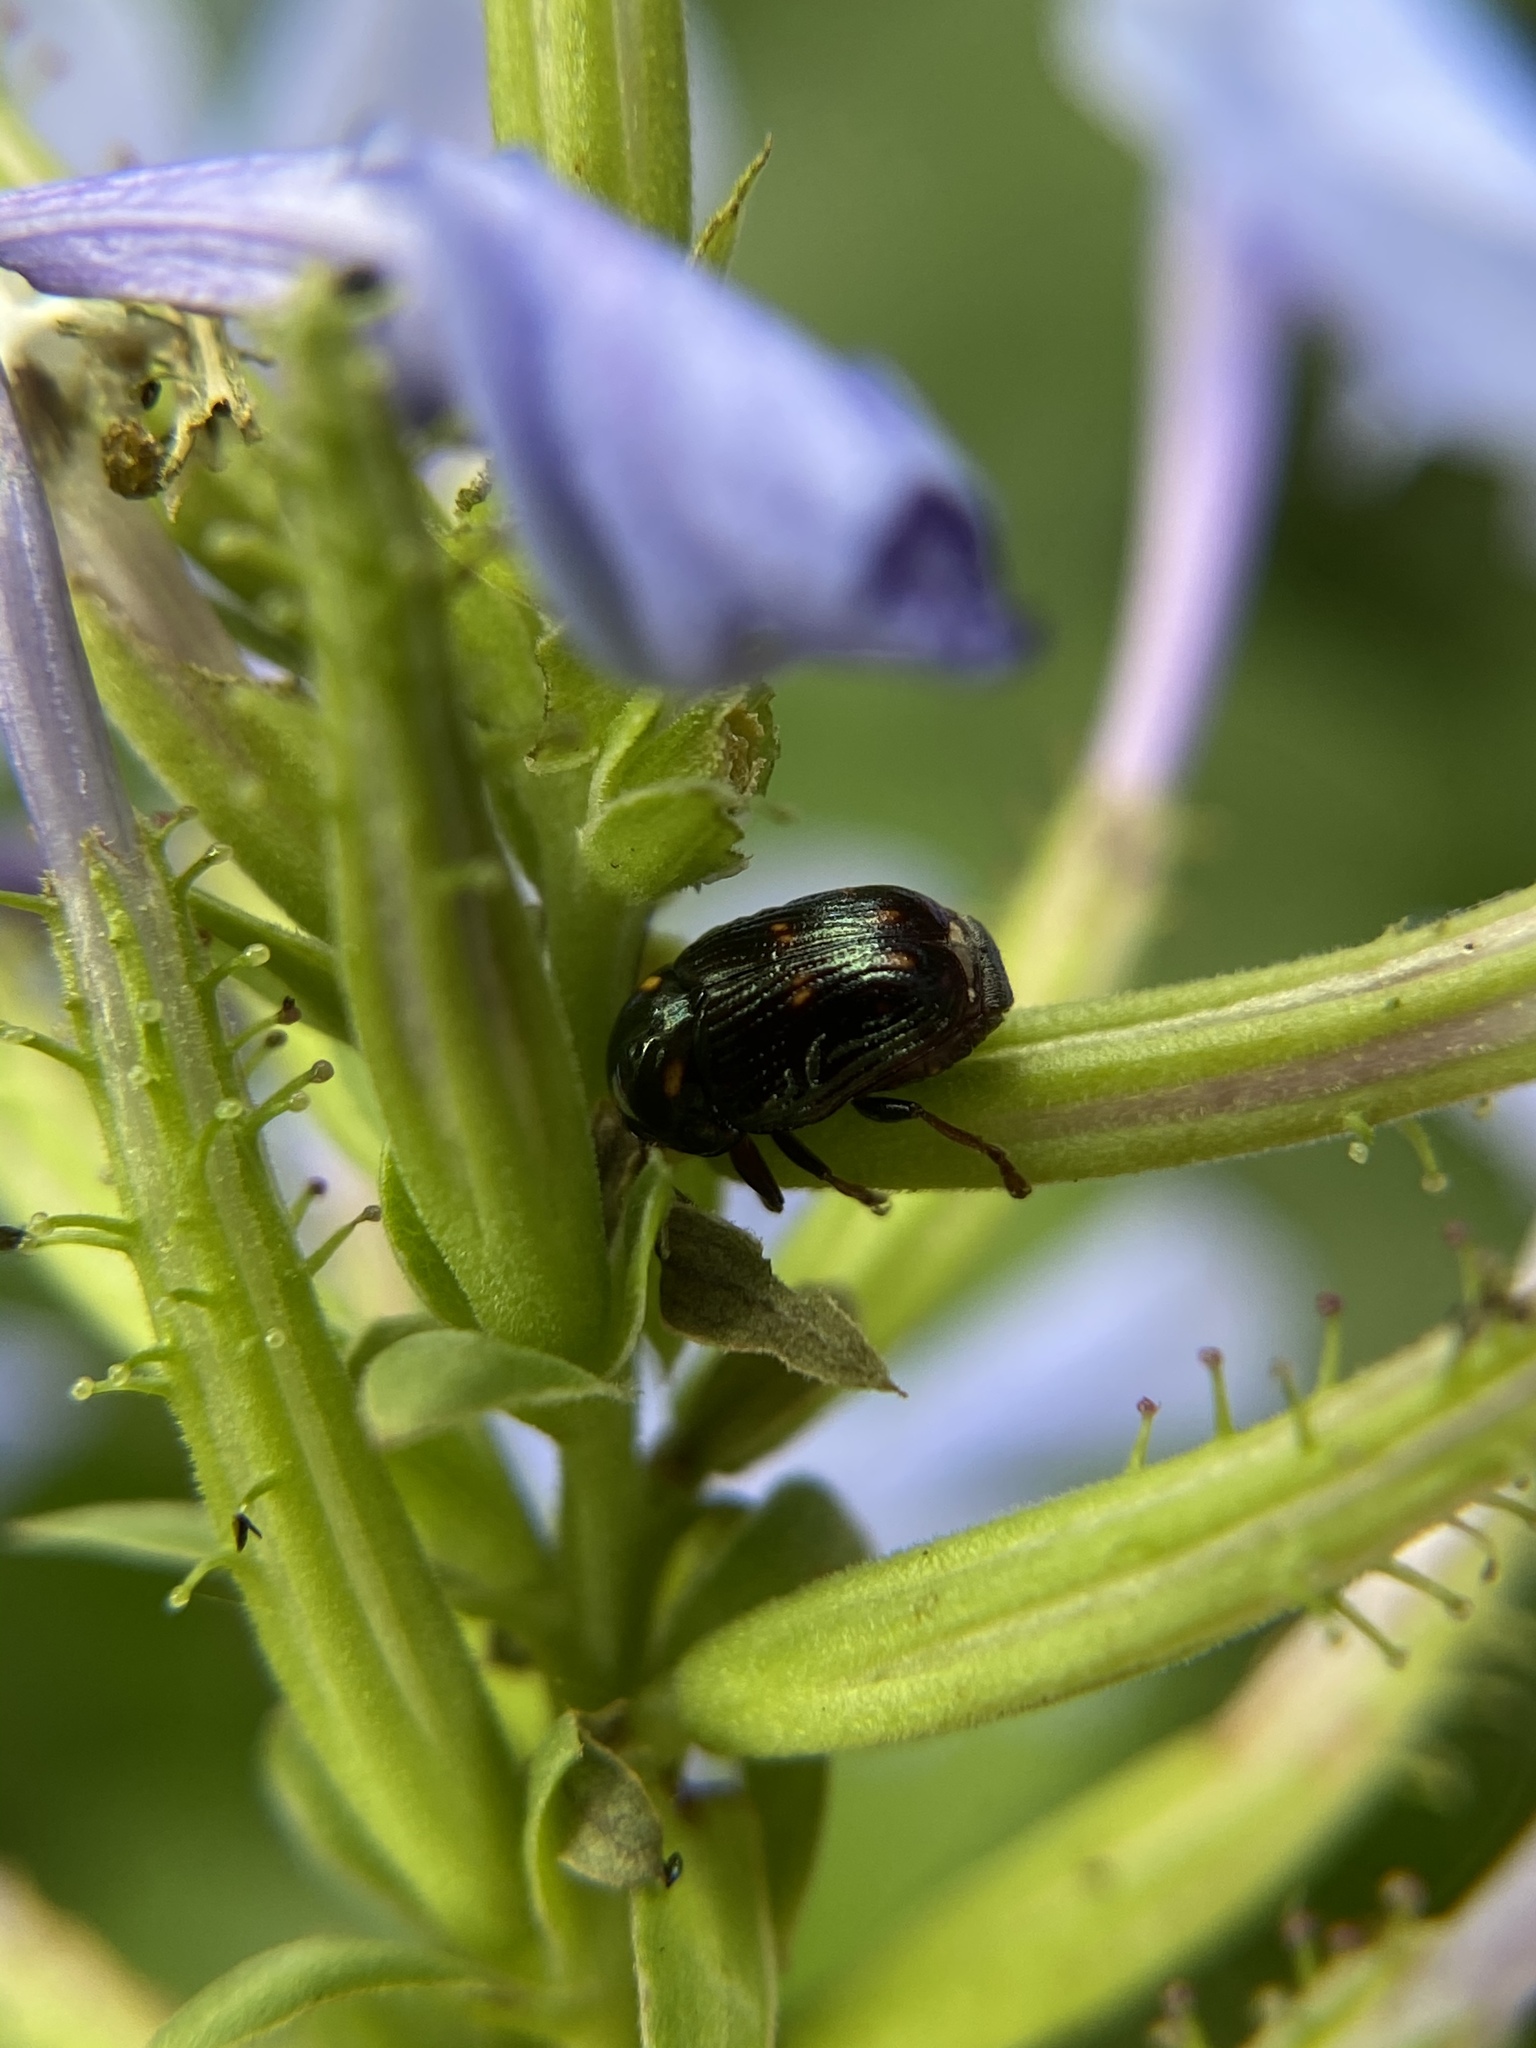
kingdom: Animalia
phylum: Arthropoda
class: Insecta
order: Coleoptera
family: Chrysomelidae
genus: Cryptocephalus
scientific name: Cryptocephalus nigrocinctus
